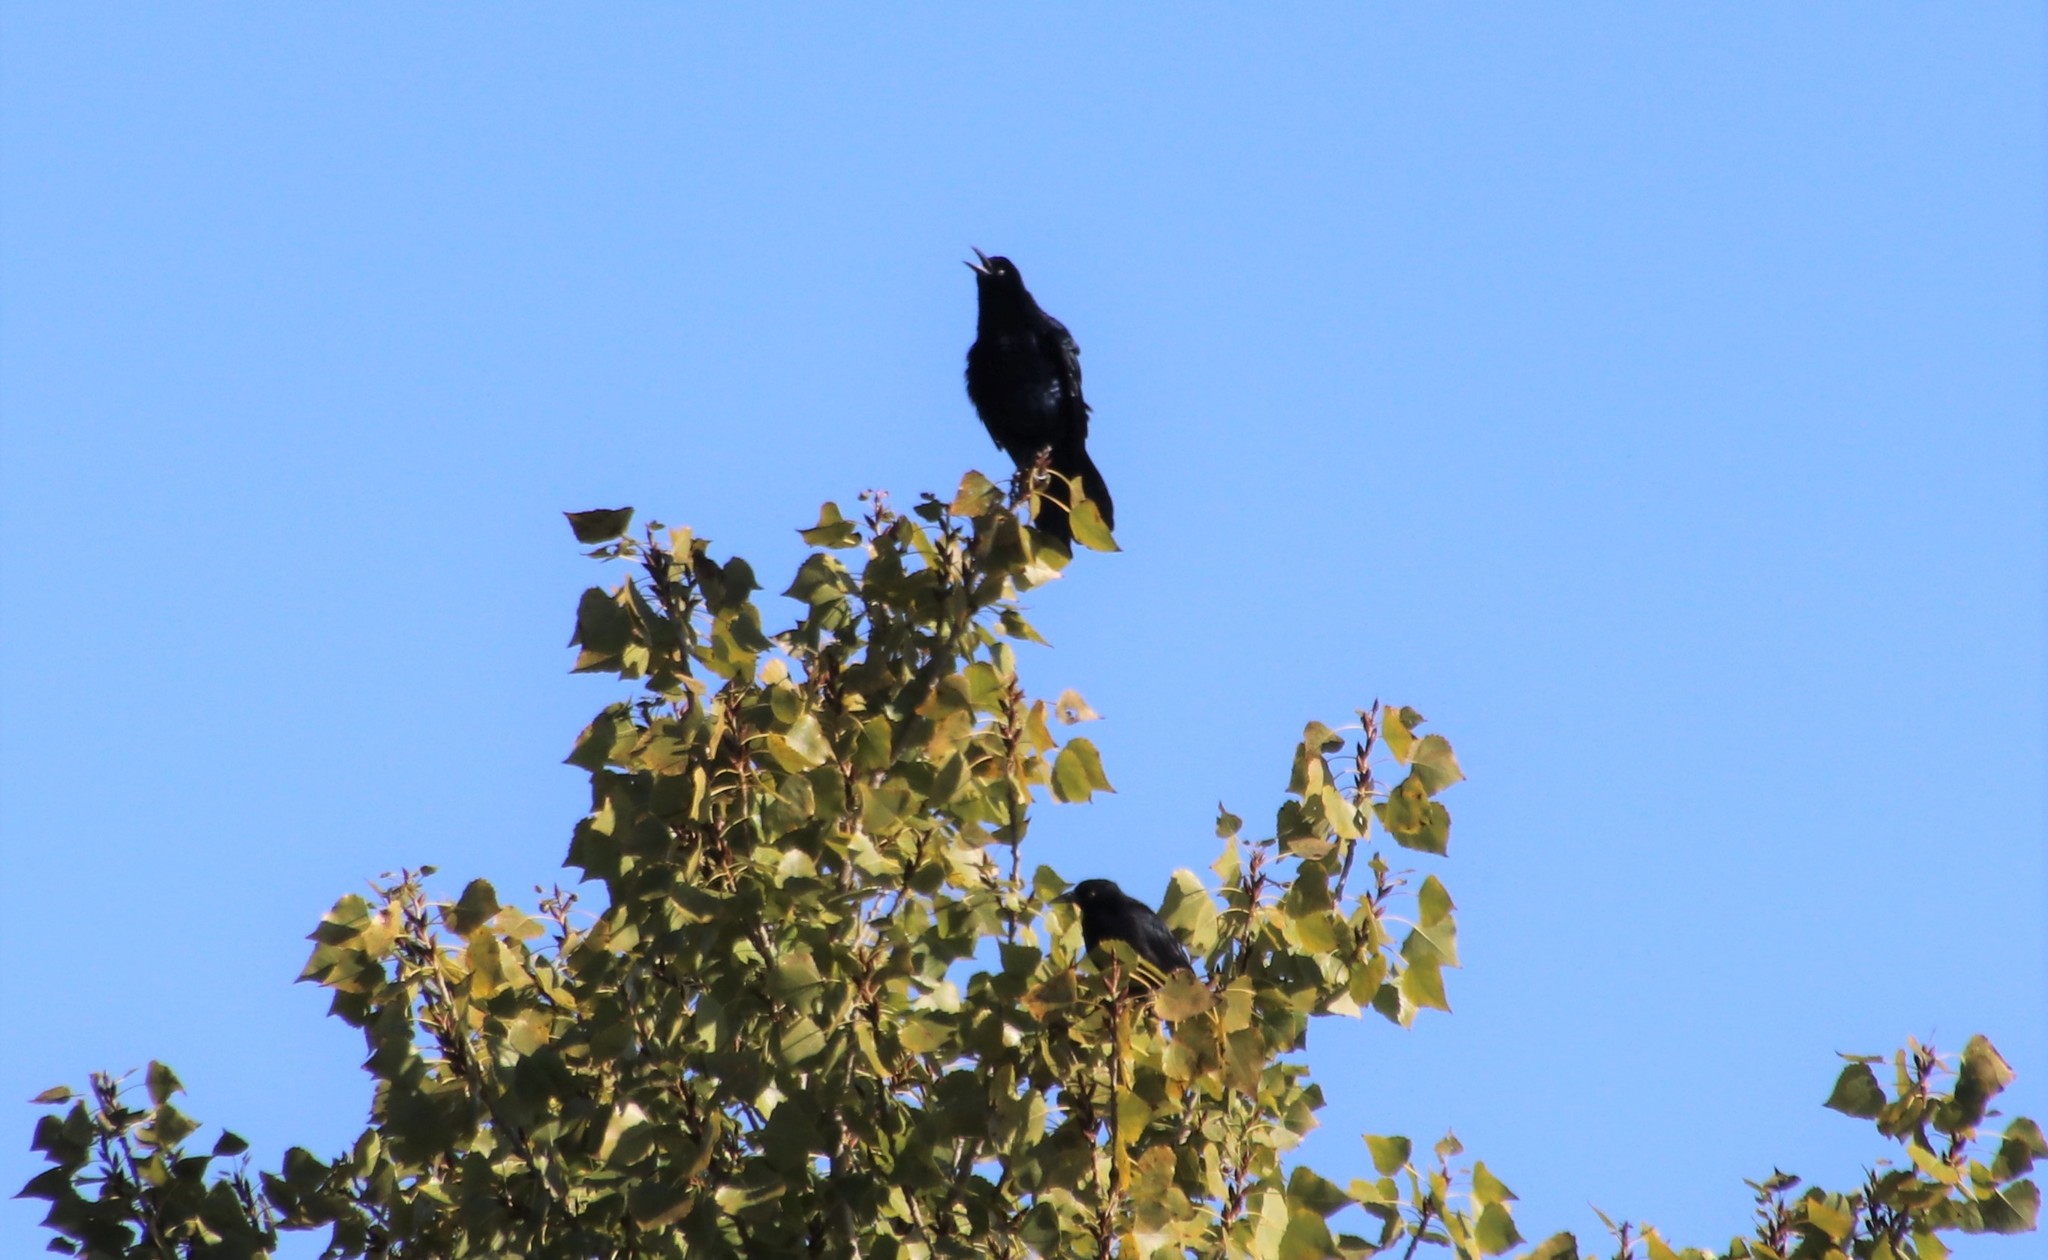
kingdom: Animalia
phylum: Chordata
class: Aves
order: Passeriformes
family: Icteridae
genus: Quiscalus
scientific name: Quiscalus mexicanus
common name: Great-tailed grackle
